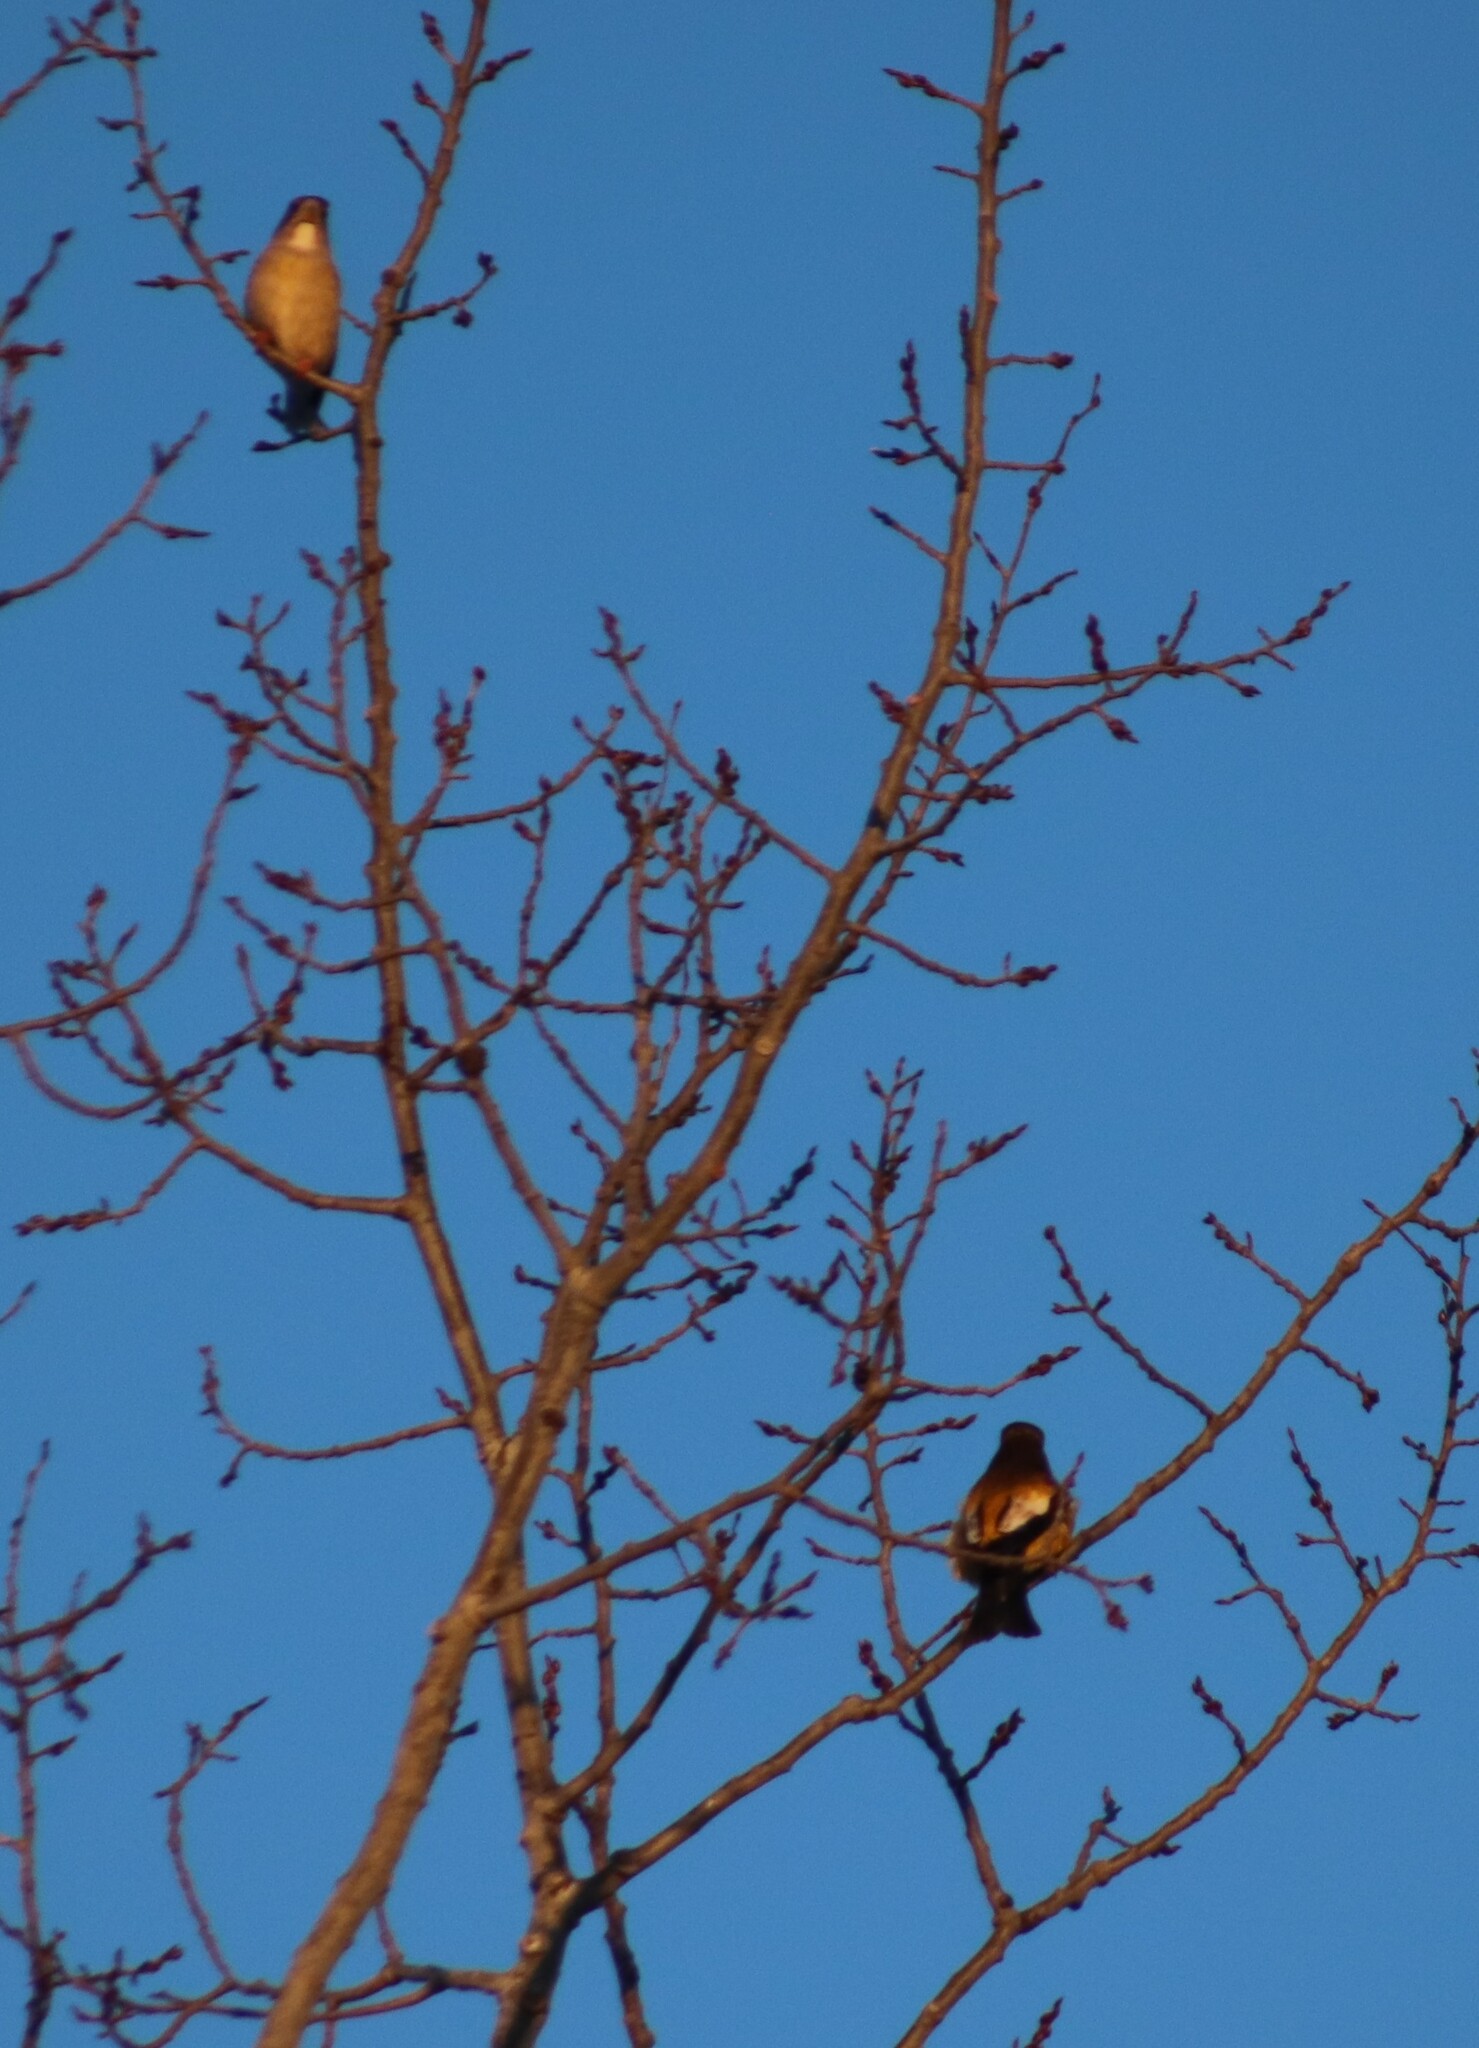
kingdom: Animalia
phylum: Chordata
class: Aves
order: Passeriformes
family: Fringillidae
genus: Hesperiphona
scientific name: Hesperiphona vespertina
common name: Evening grosbeak
